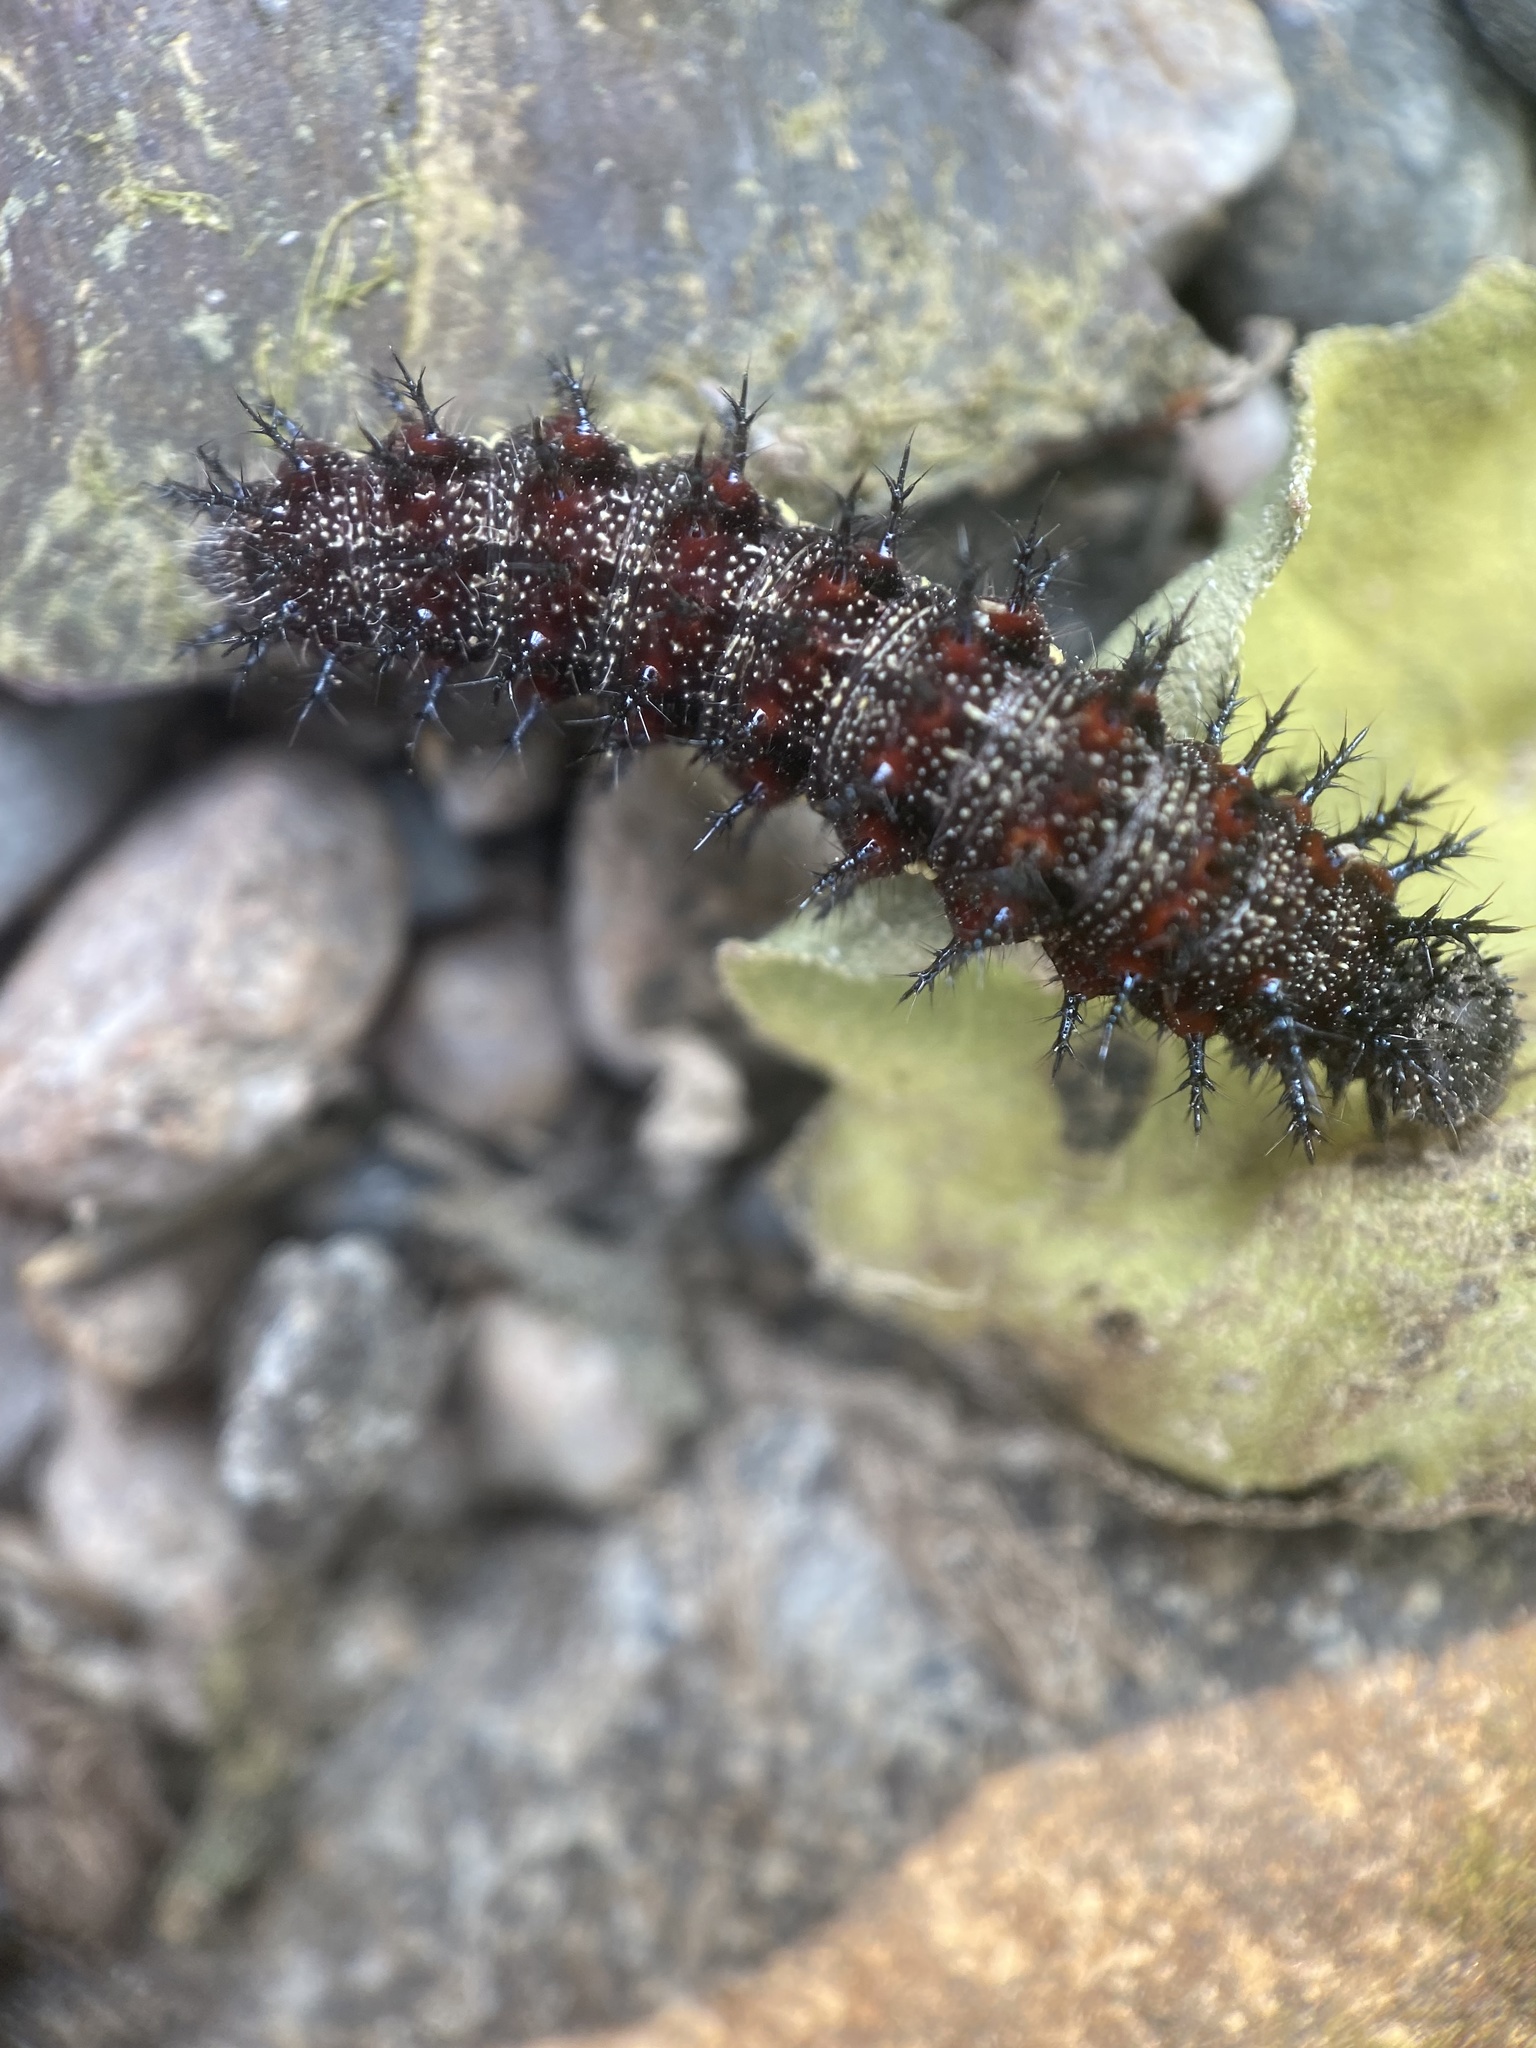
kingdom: Animalia
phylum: Arthropoda
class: Insecta
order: Lepidoptera
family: Nymphalidae
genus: Nymphalis
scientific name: Nymphalis antiopa
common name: Camberwell beauty
